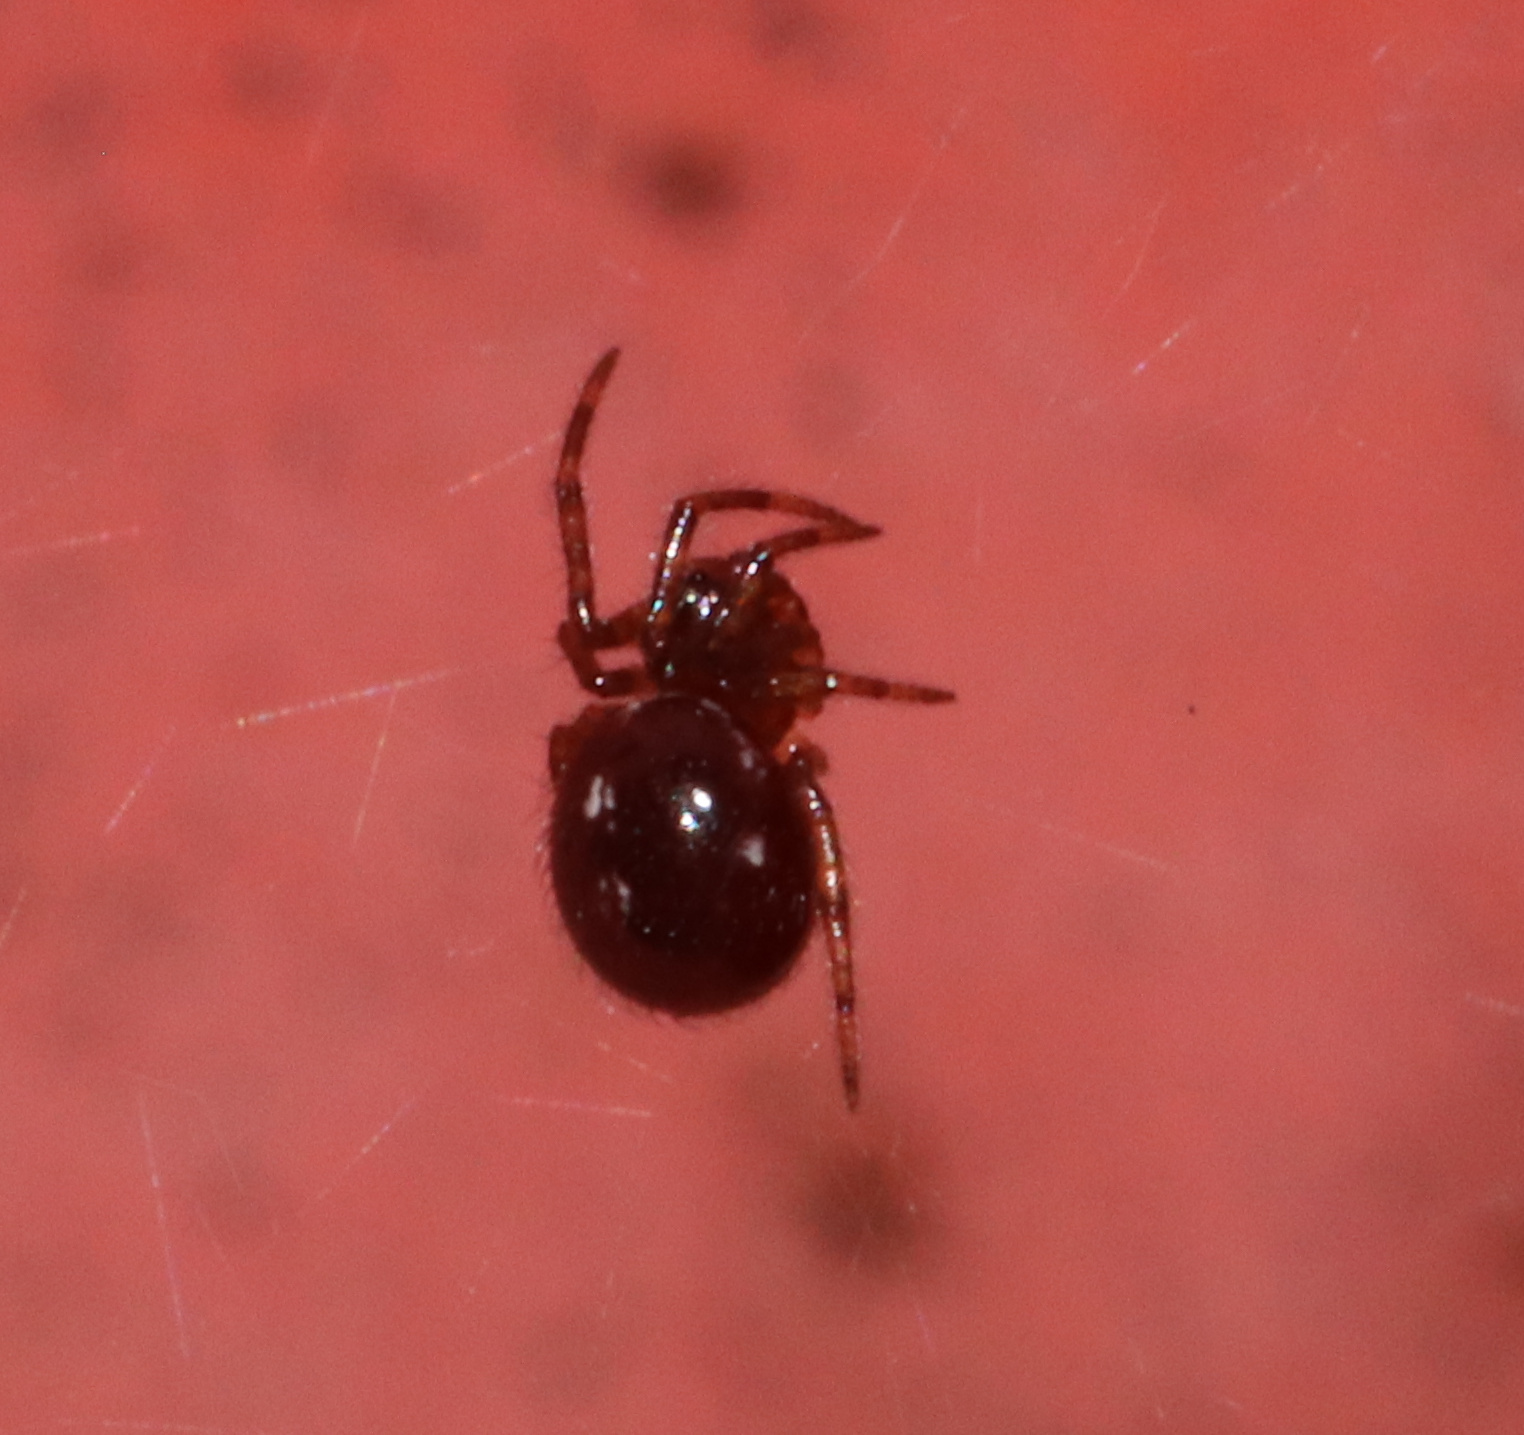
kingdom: Animalia
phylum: Arthropoda
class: Arachnida
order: Araneae
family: Theridiidae
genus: Steatoda
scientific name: Steatoda borealis
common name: Boreal combfoot
